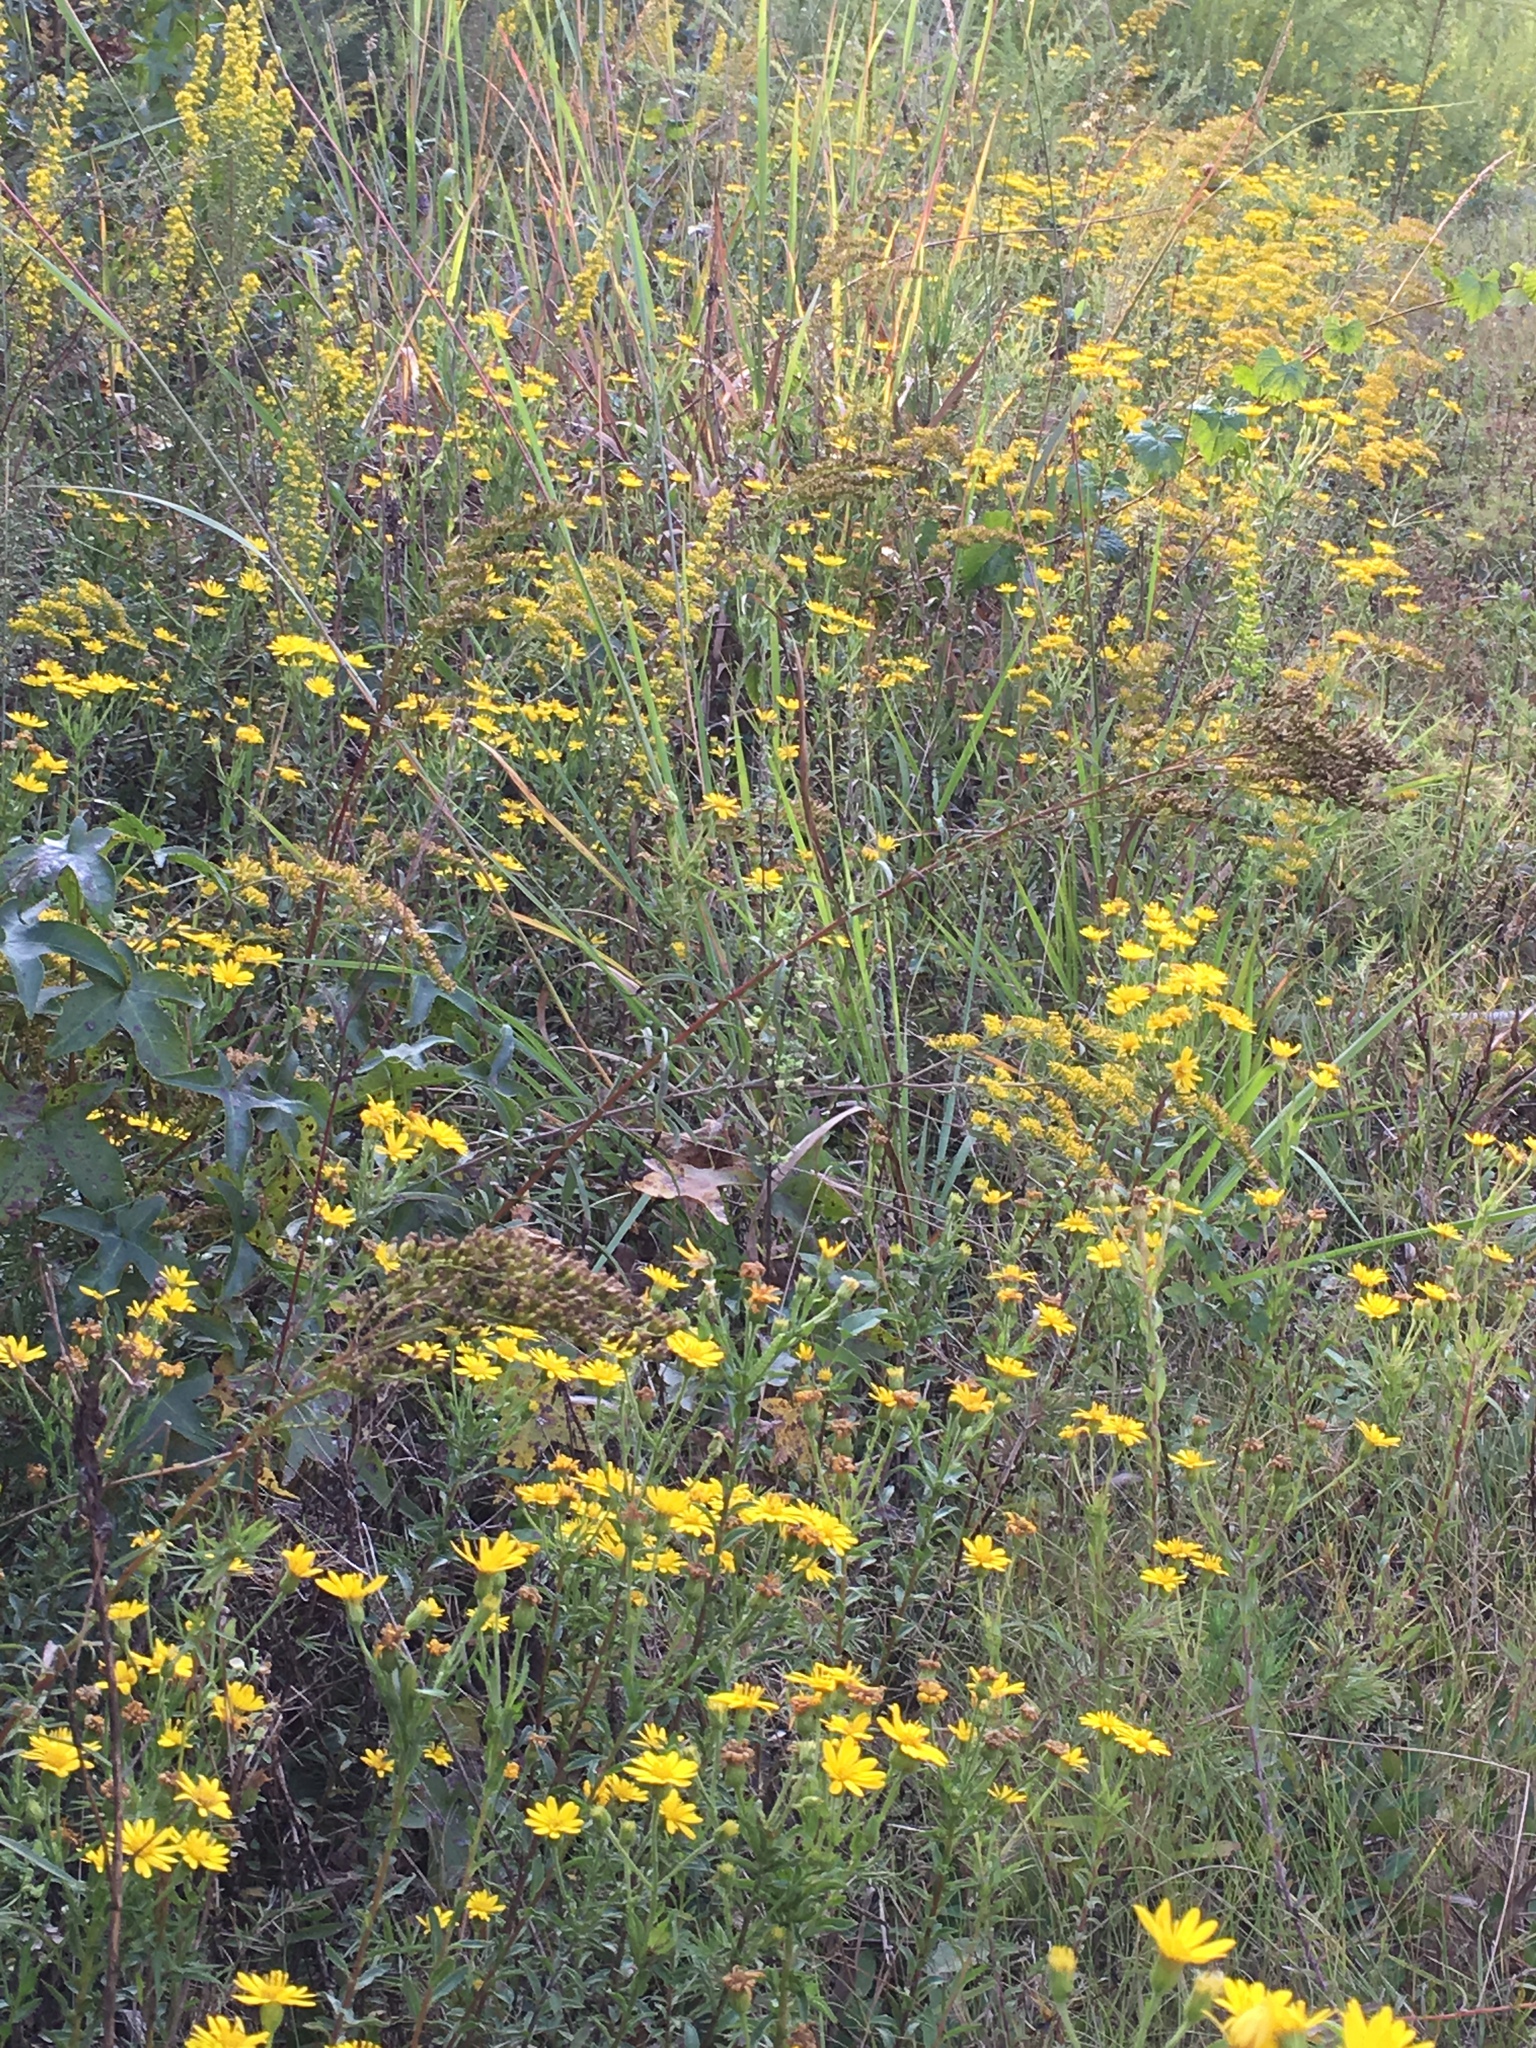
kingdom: Plantae
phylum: Tracheophyta
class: Magnoliopsida
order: Asterales
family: Asteraceae
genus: Chrysopsis
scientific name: Chrysopsis mariana
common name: Maryland golden-aster
